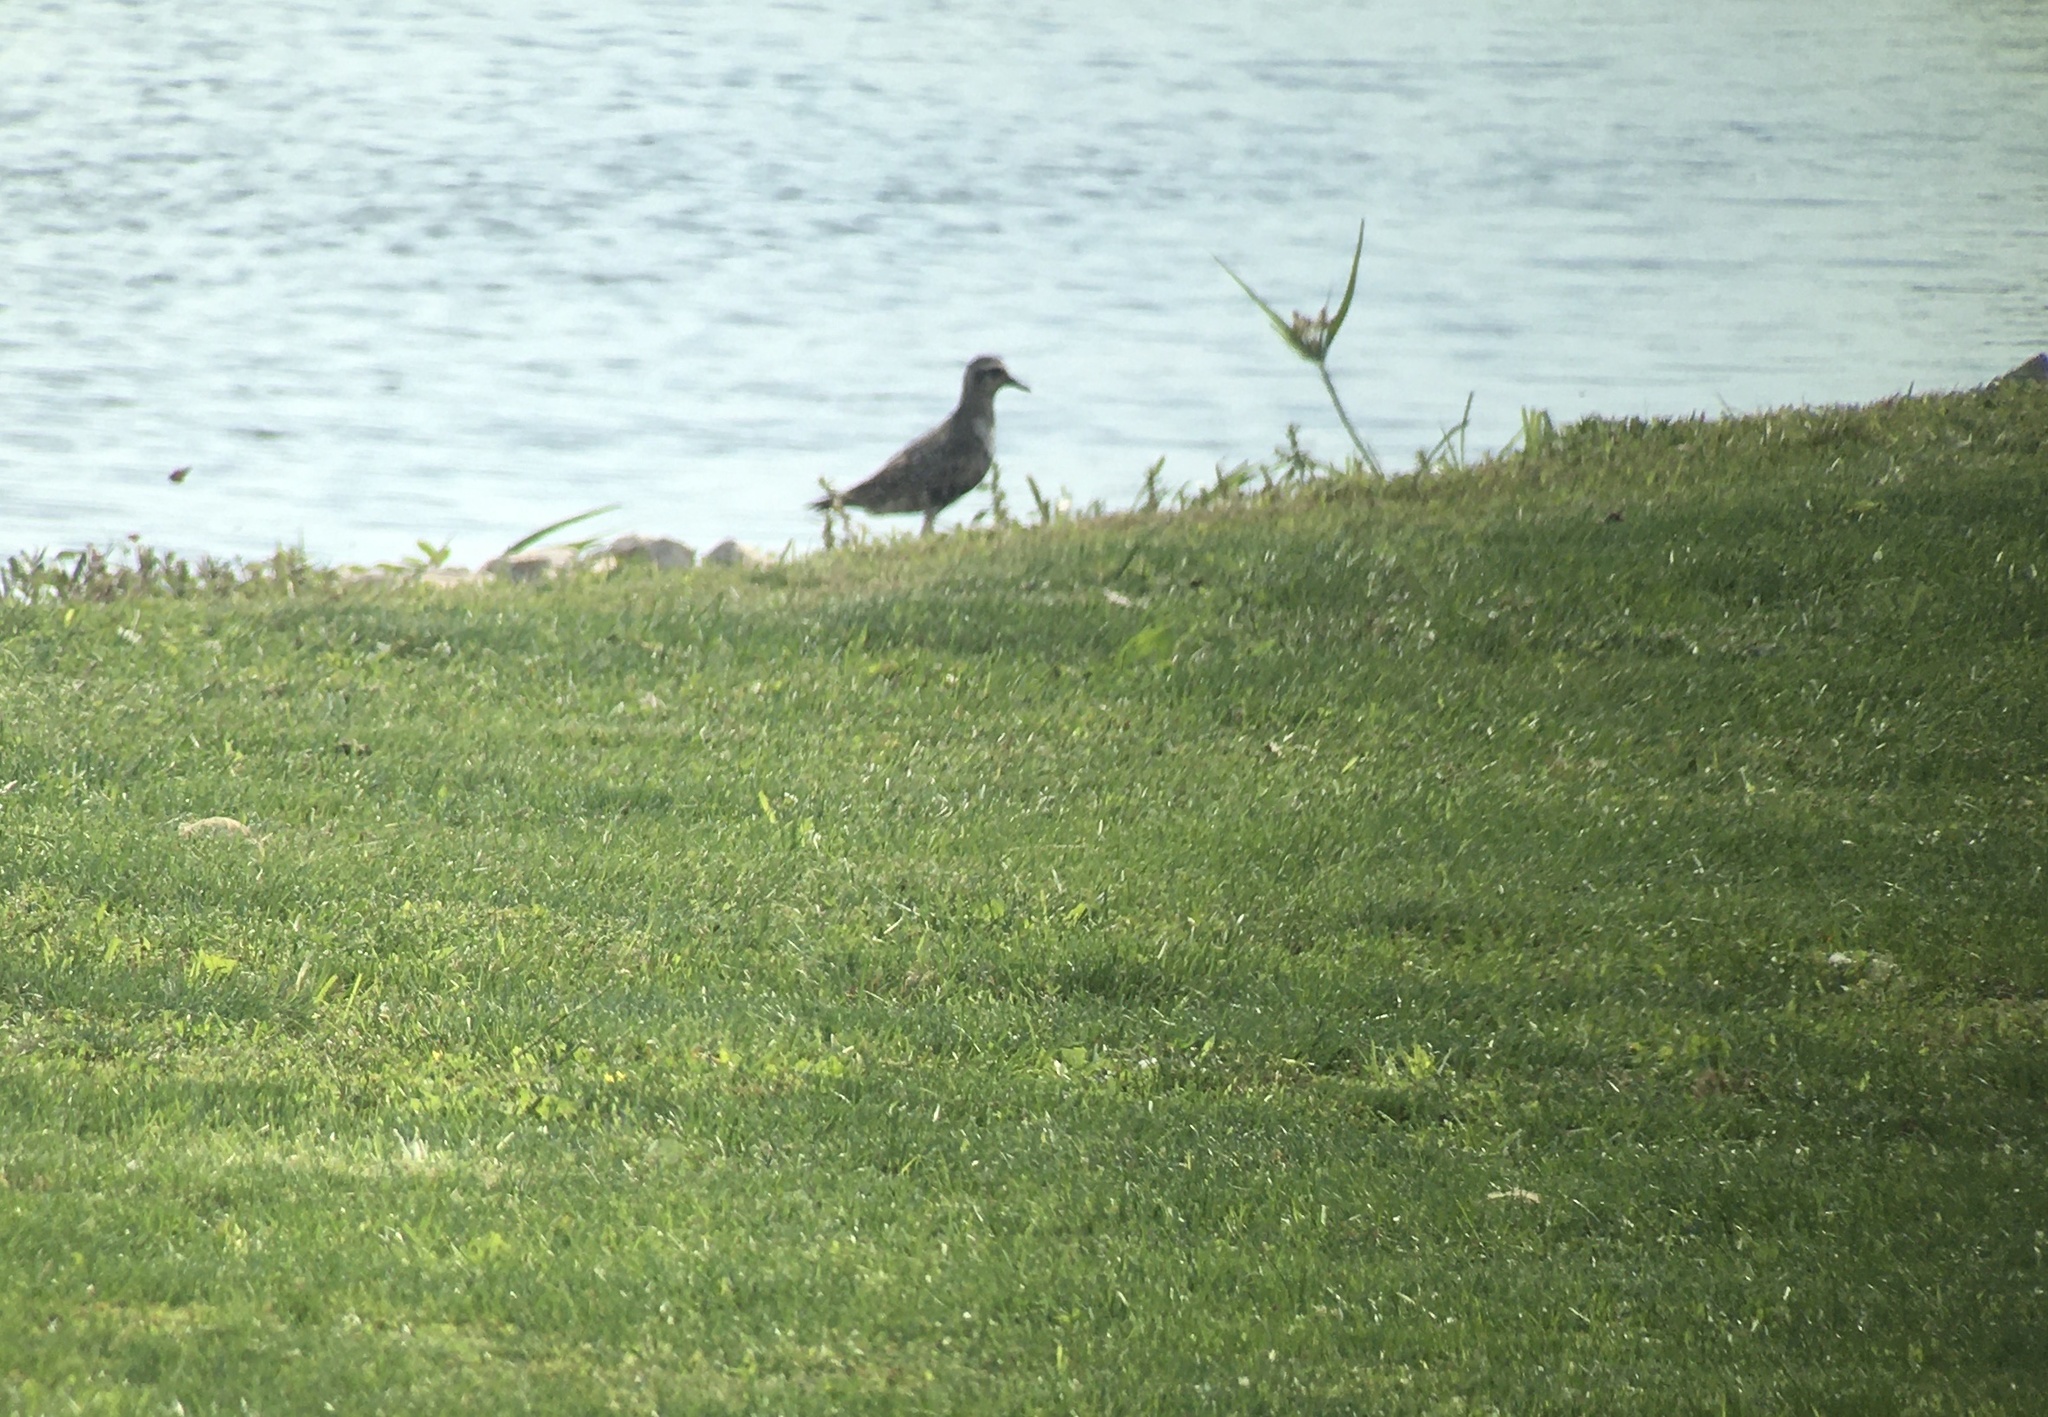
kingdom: Animalia
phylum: Chordata
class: Aves
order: Charadriiformes
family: Charadriidae
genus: Pluvialis
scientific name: Pluvialis dominica
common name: American golden plover
